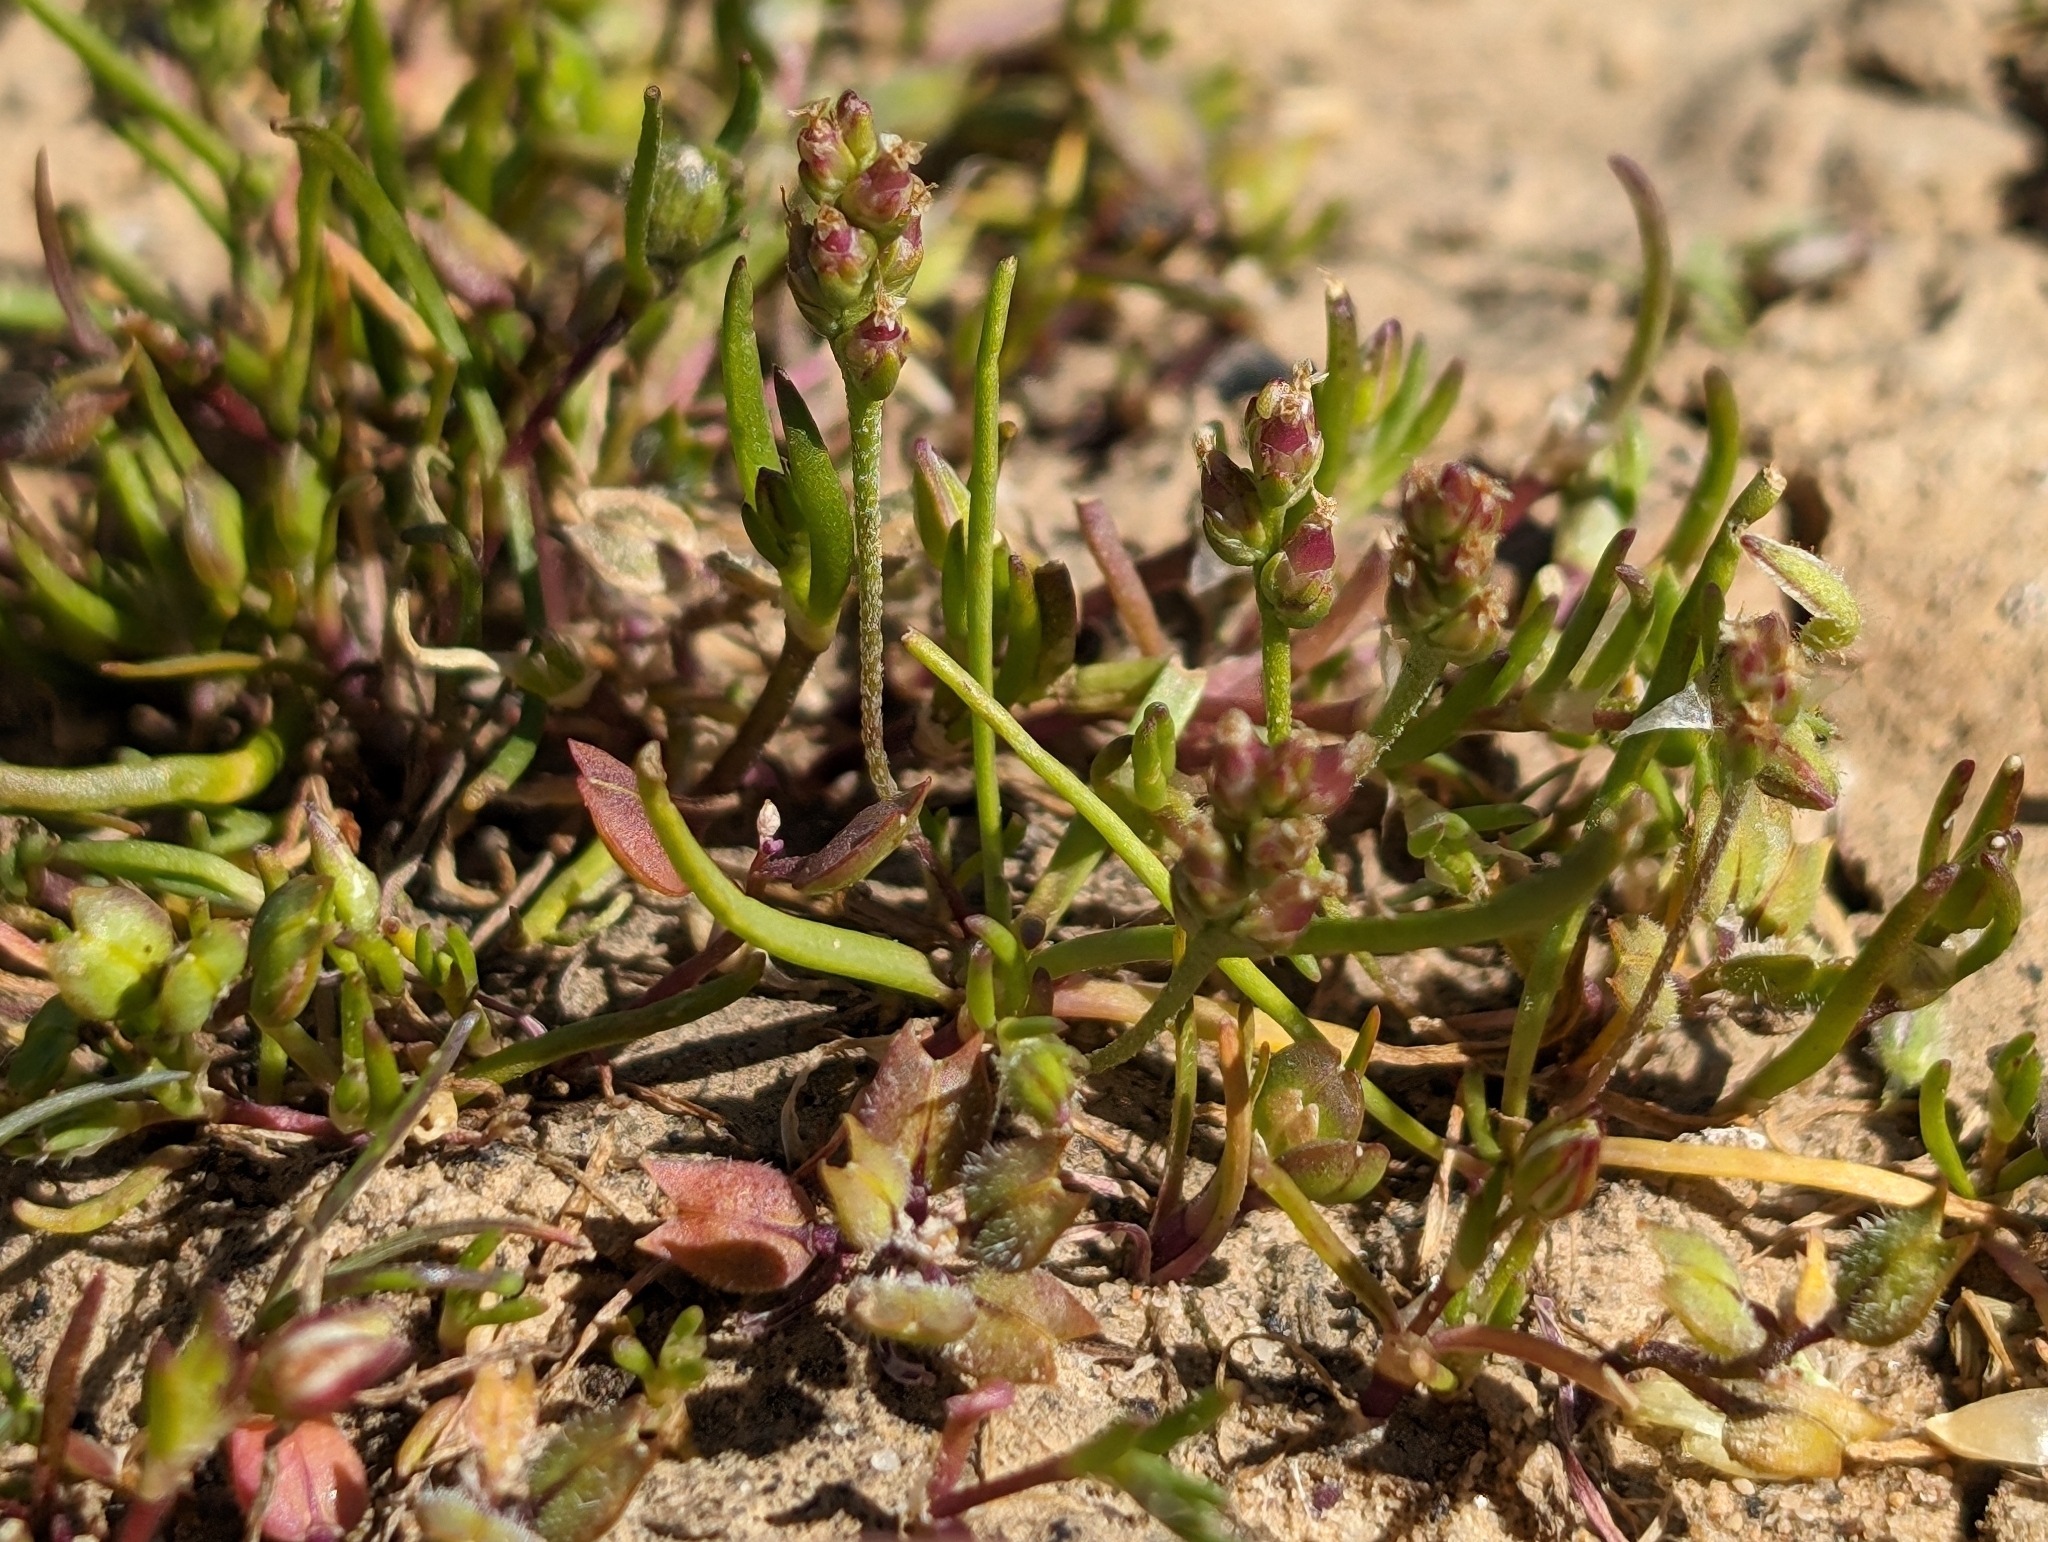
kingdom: Plantae
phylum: Tracheophyta
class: Magnoliopsida
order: Lamiales
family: Plantaginaceae
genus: Plantago
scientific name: Plantago elongata
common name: Linear-leaved plantain
